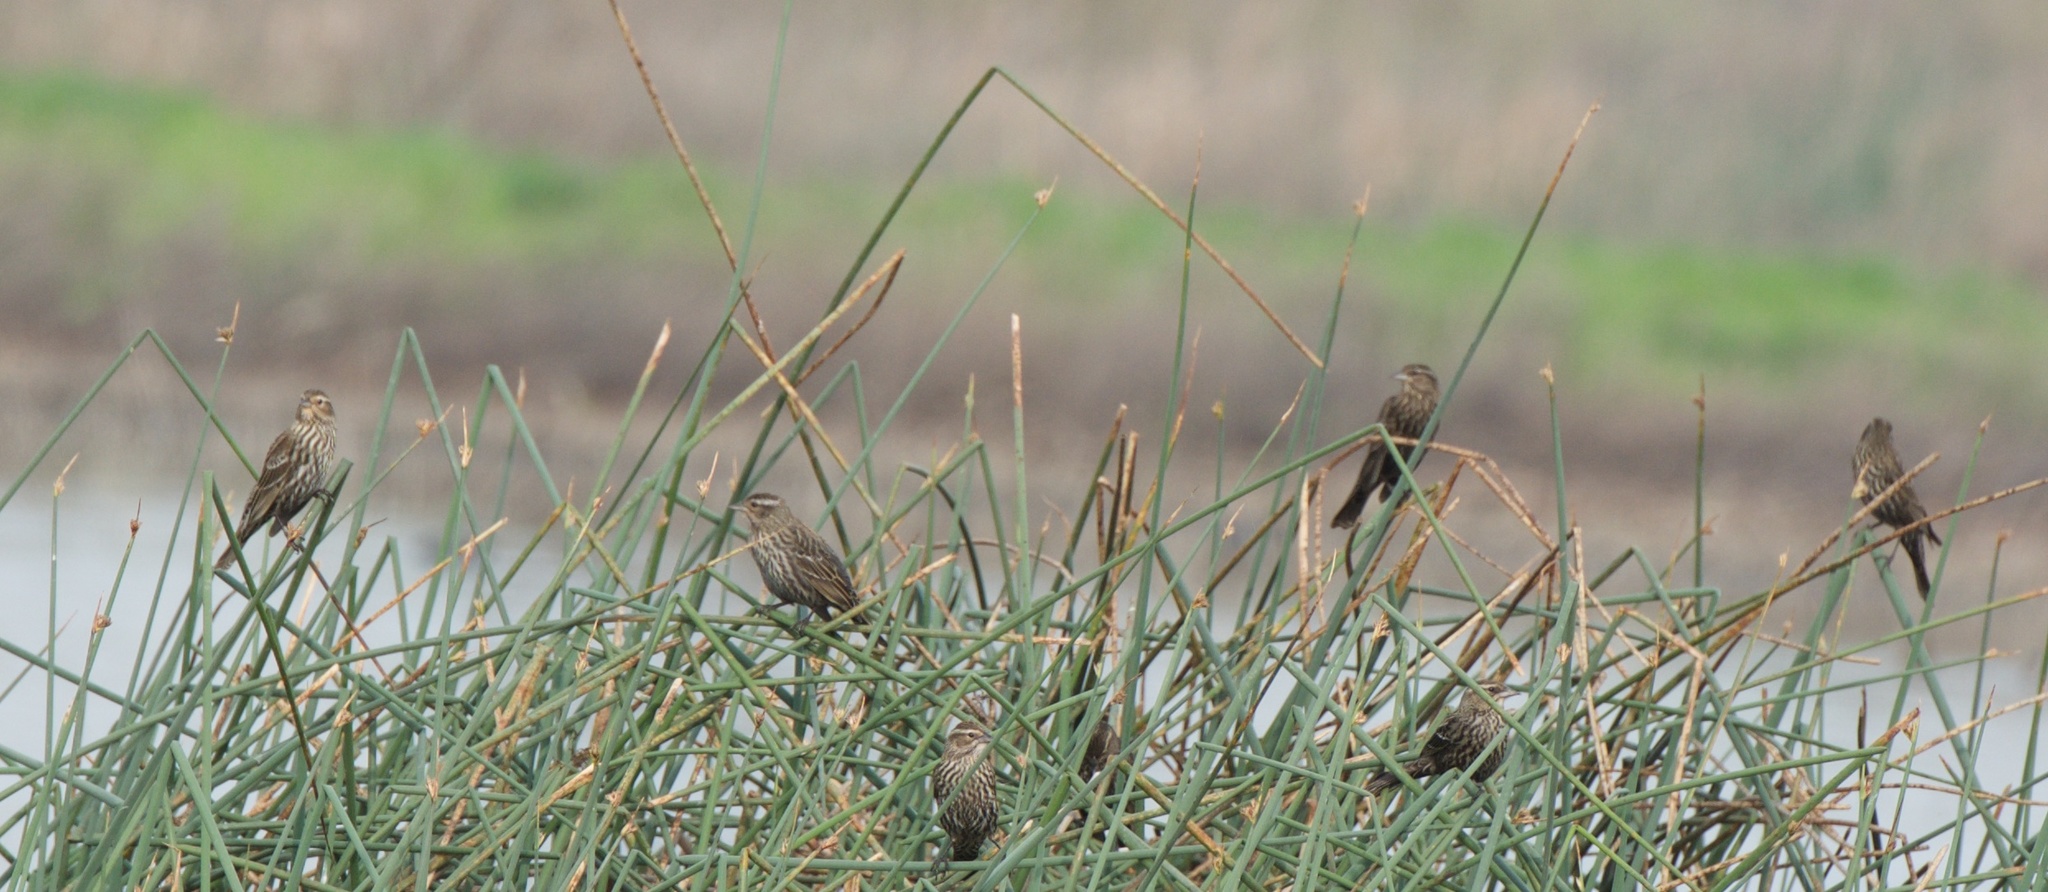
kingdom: Animalia
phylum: Chordata
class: Aves
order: Passeriformes
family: Icteridae
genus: Agelaius
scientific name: Agelaius phoeniceus
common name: Red-winged blackbird
